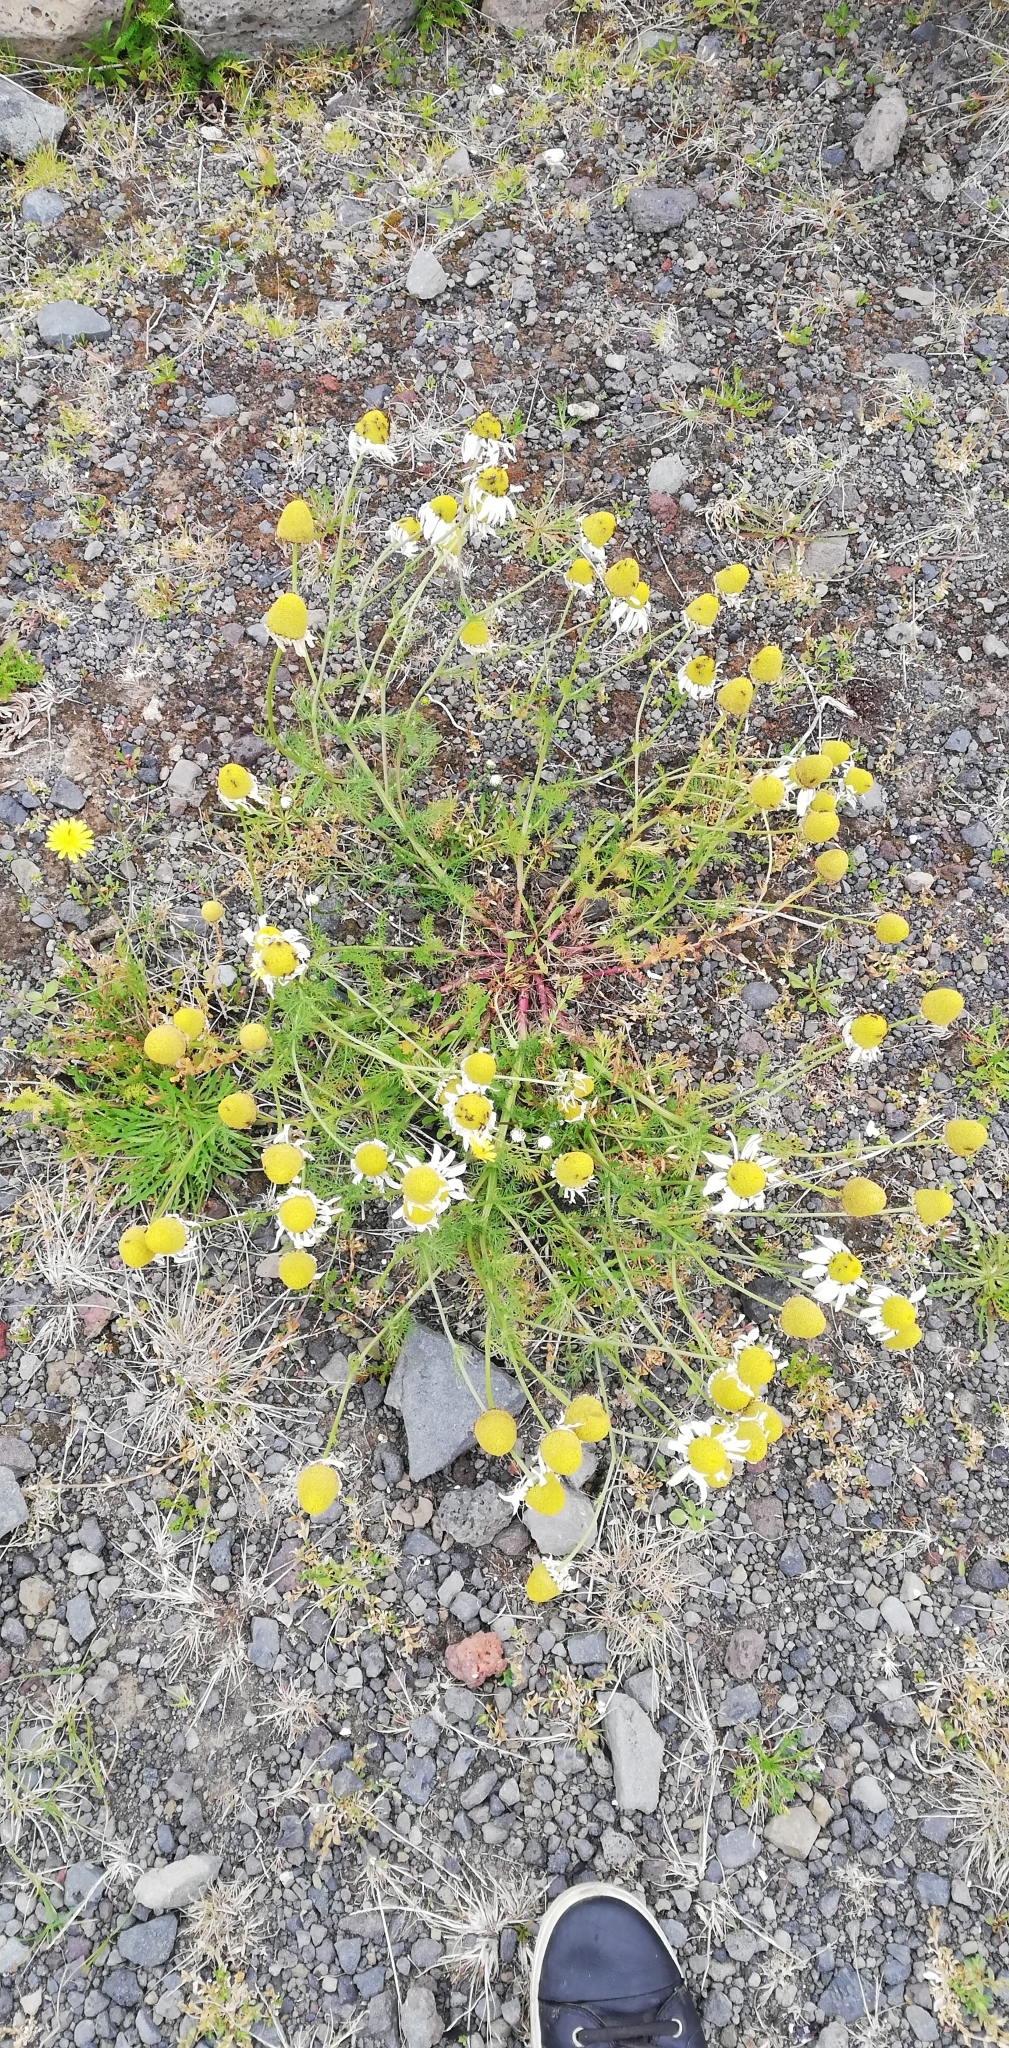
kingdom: Plantae
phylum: Tracheophyta
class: Magnoliopsida
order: Asterales
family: Asteraceae
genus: Tripleurospermum
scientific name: Tripleurospermum maritimum
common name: Sea mayweed
